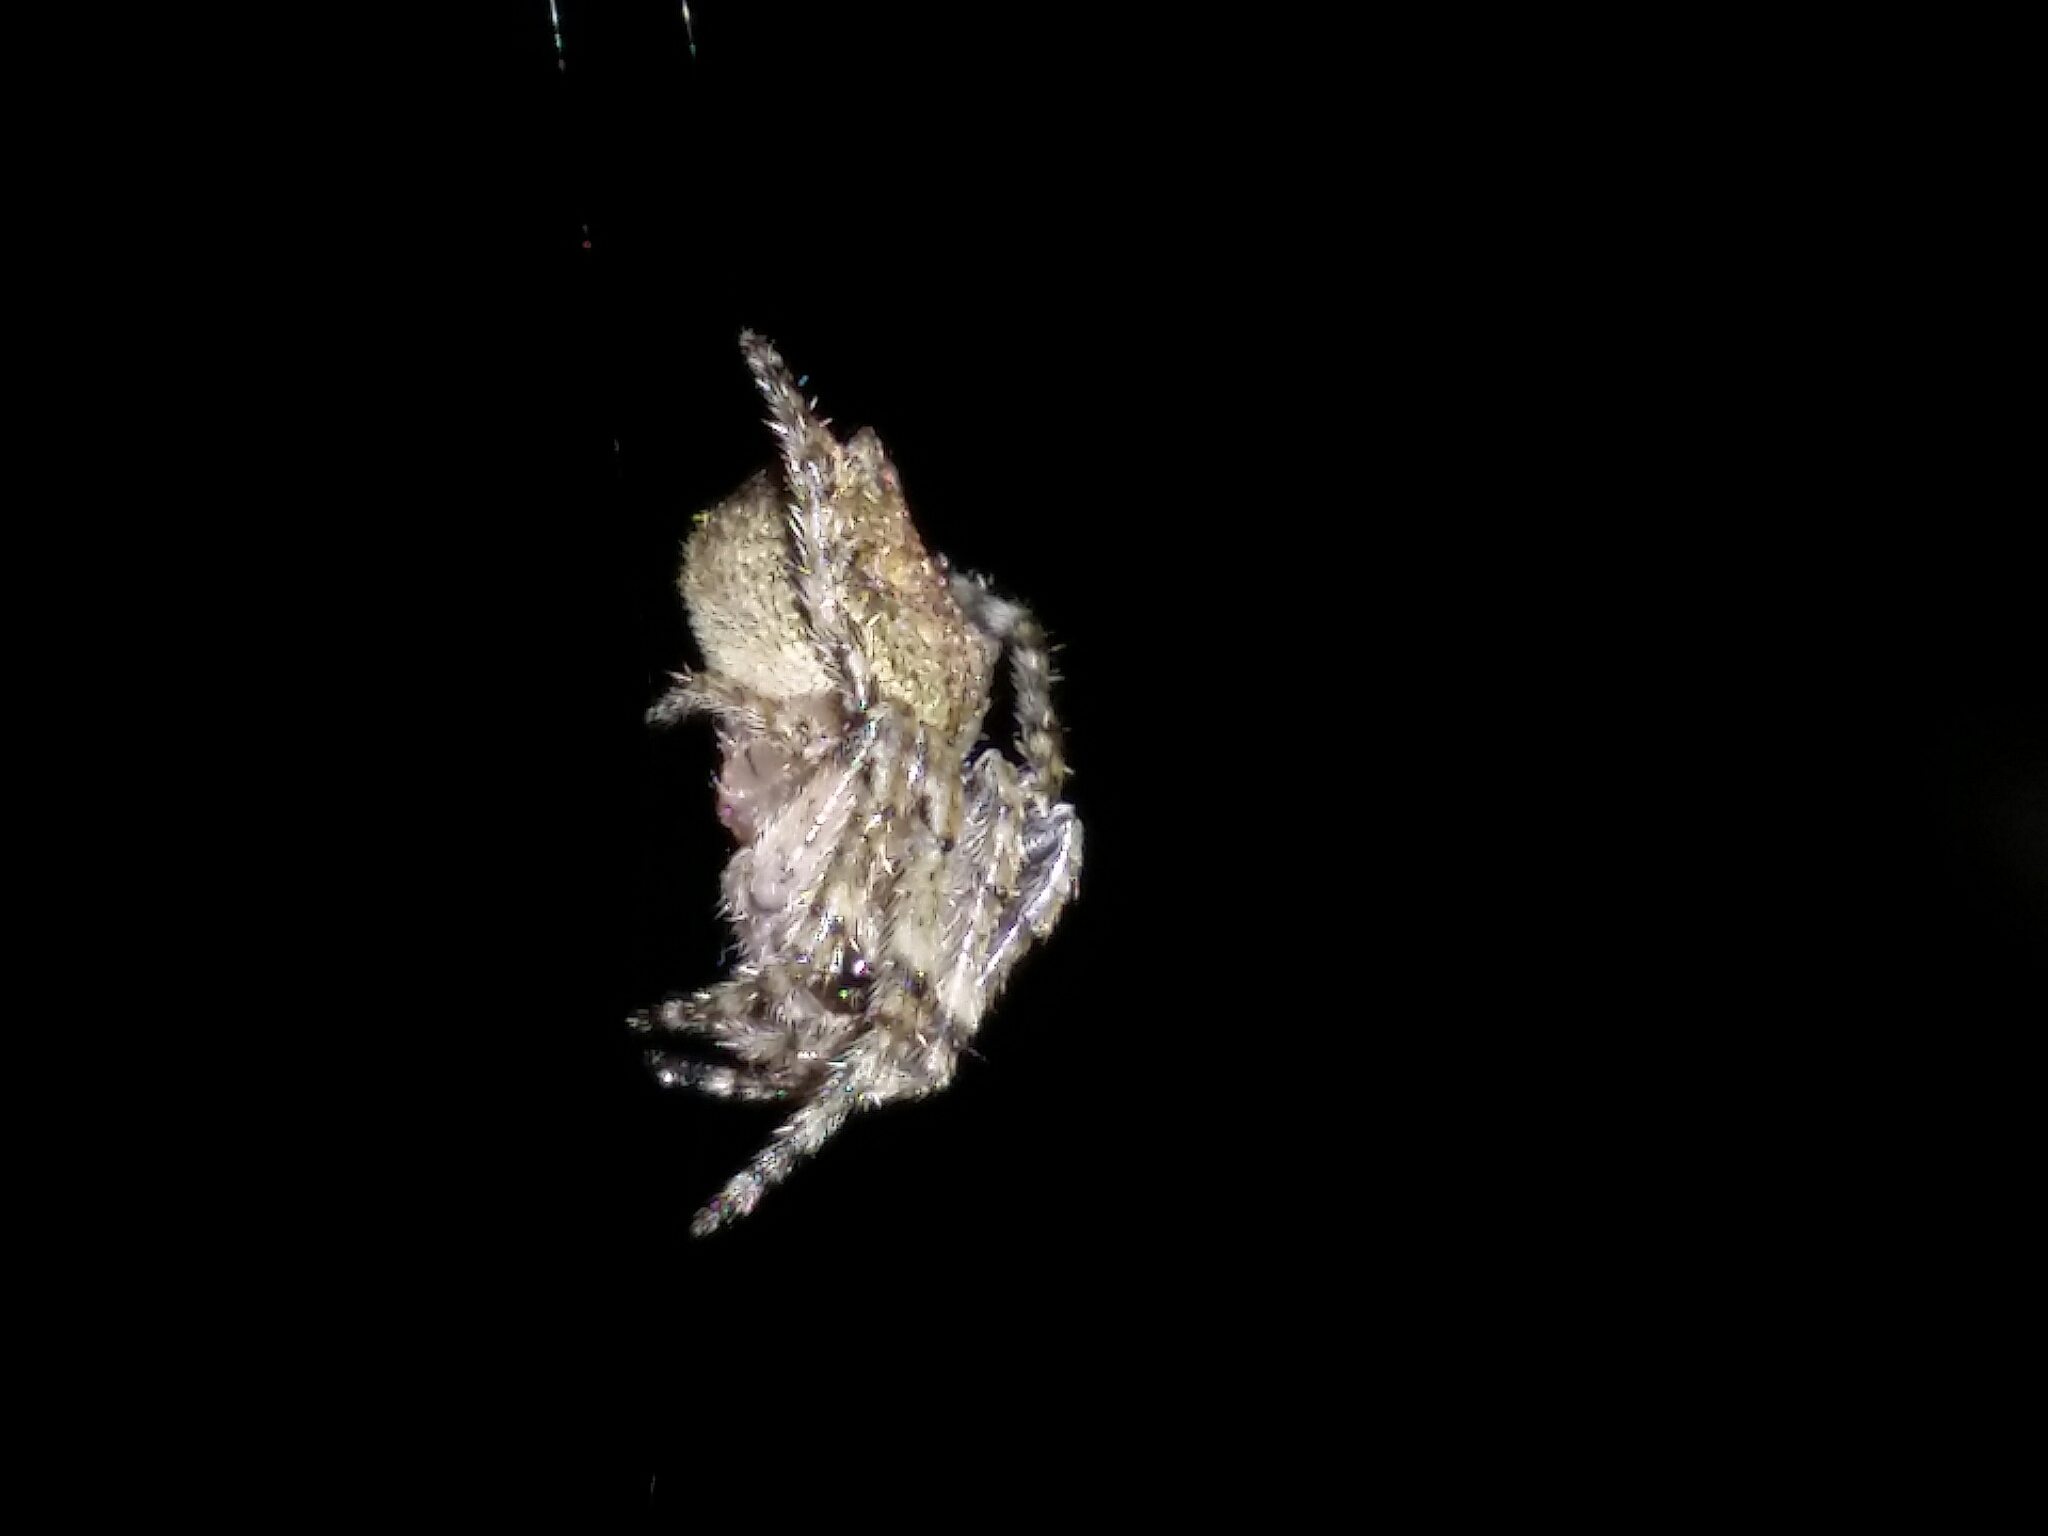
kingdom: Animalia
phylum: Arthropoda
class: Arachnida
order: Araneae
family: Araneidae
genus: Eriophora
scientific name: Eriophora pustulosa
